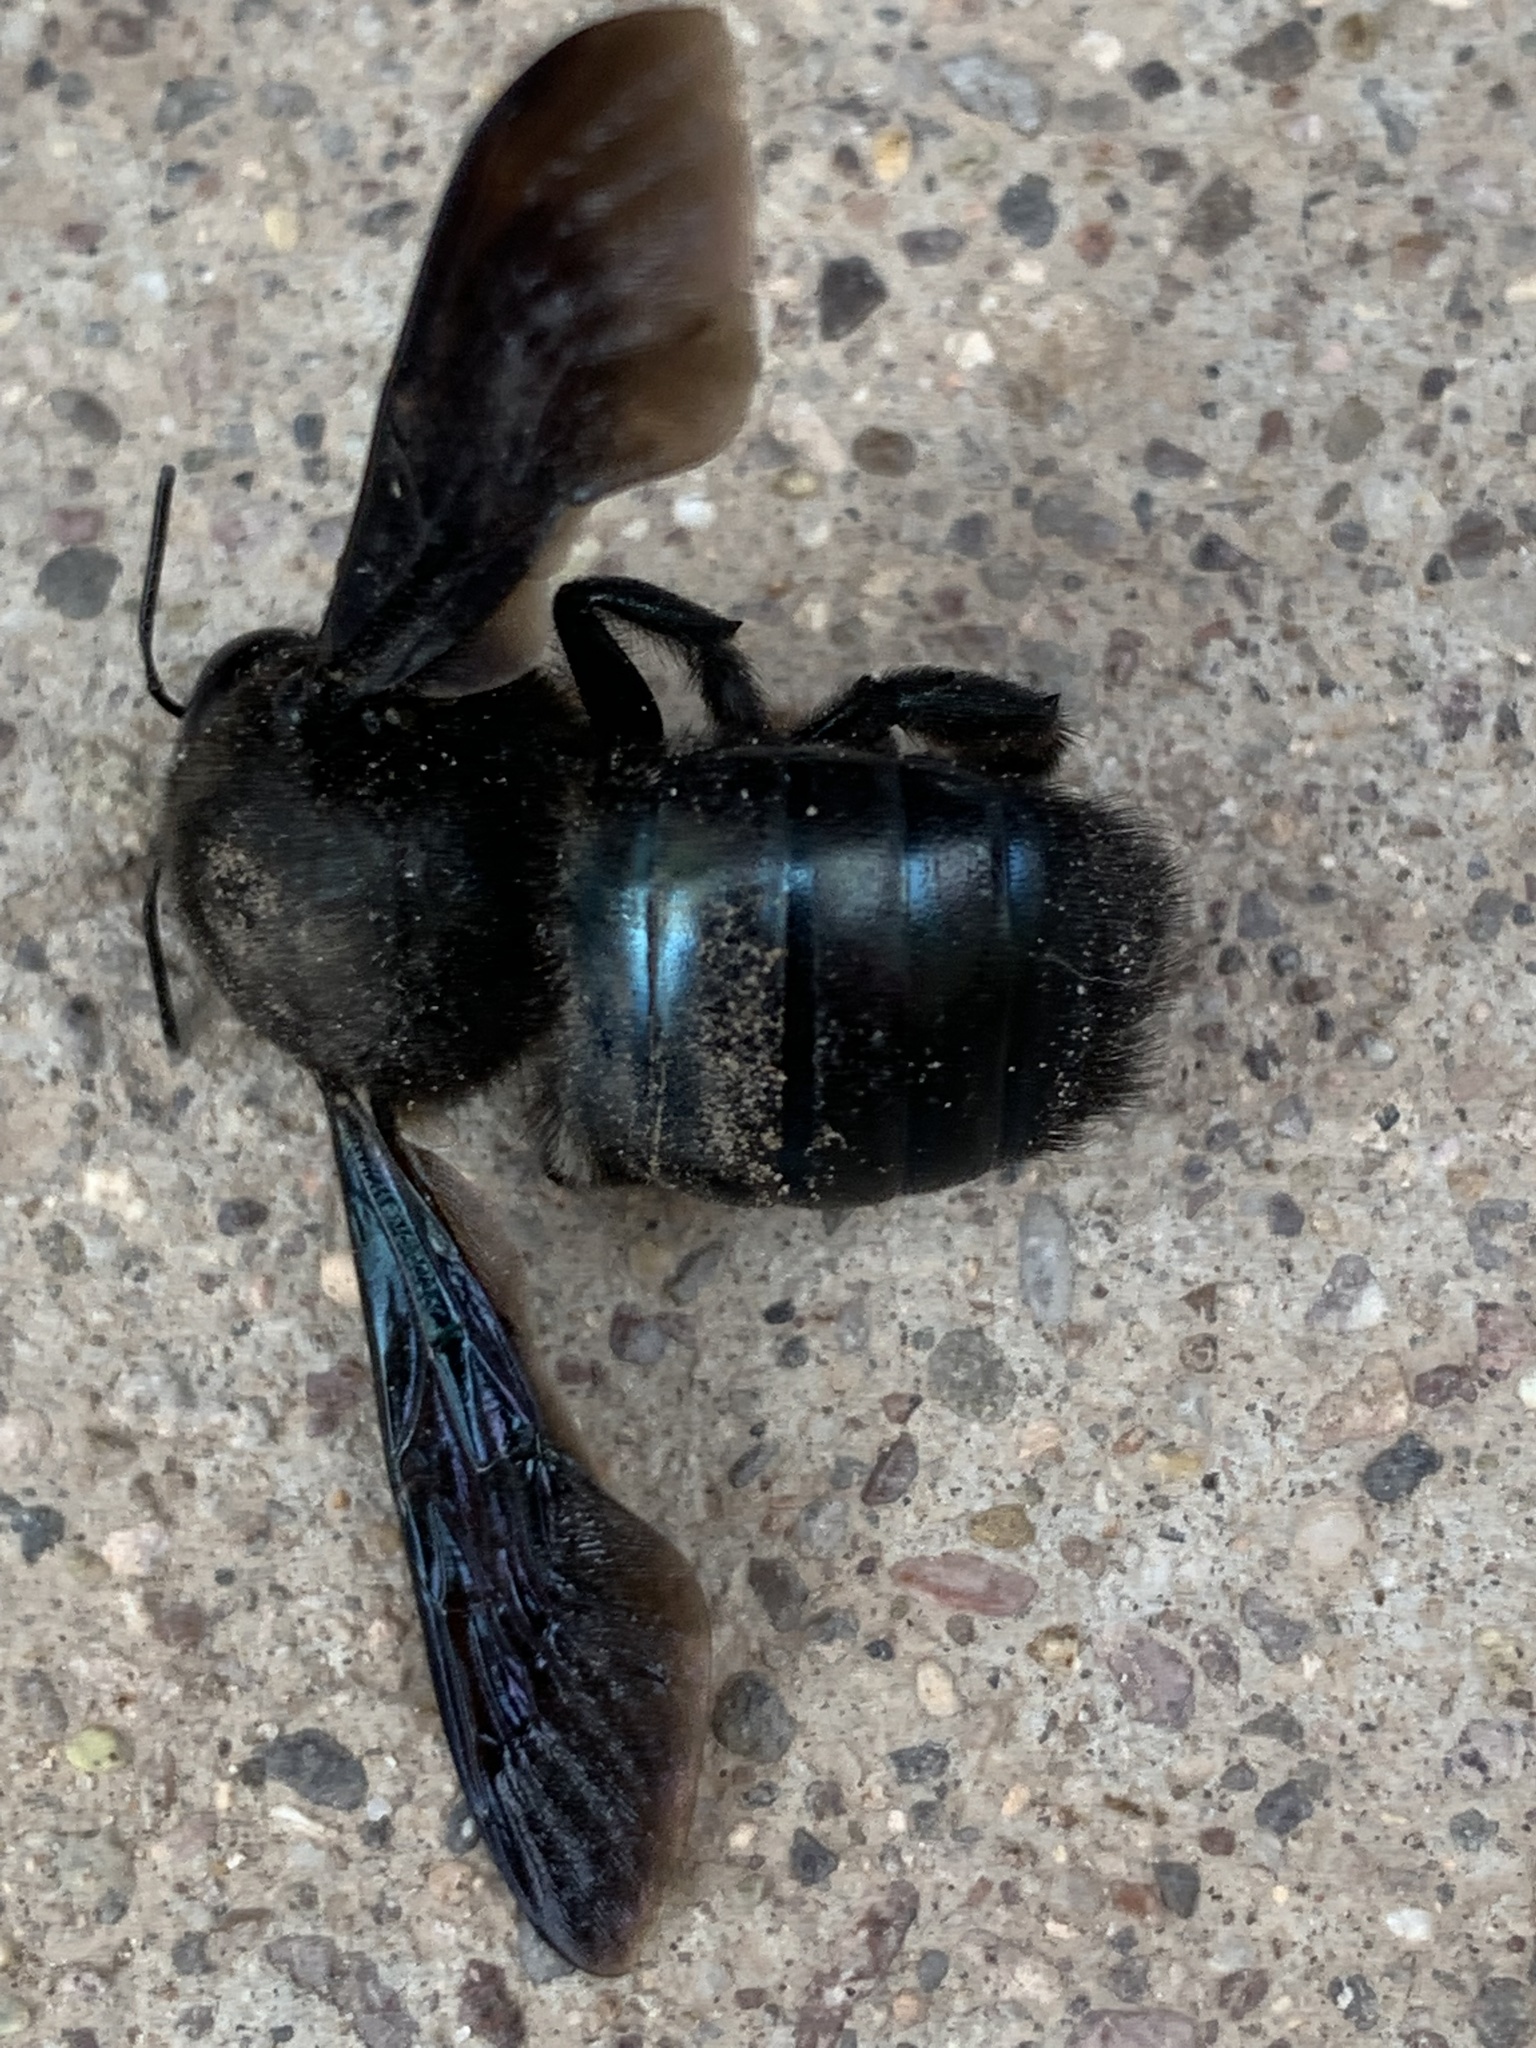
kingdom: Animalia
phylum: Arthropoda
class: Insecta
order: Hymenoptera
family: Apidae
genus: Xylocopa
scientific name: Xylocopa californica
